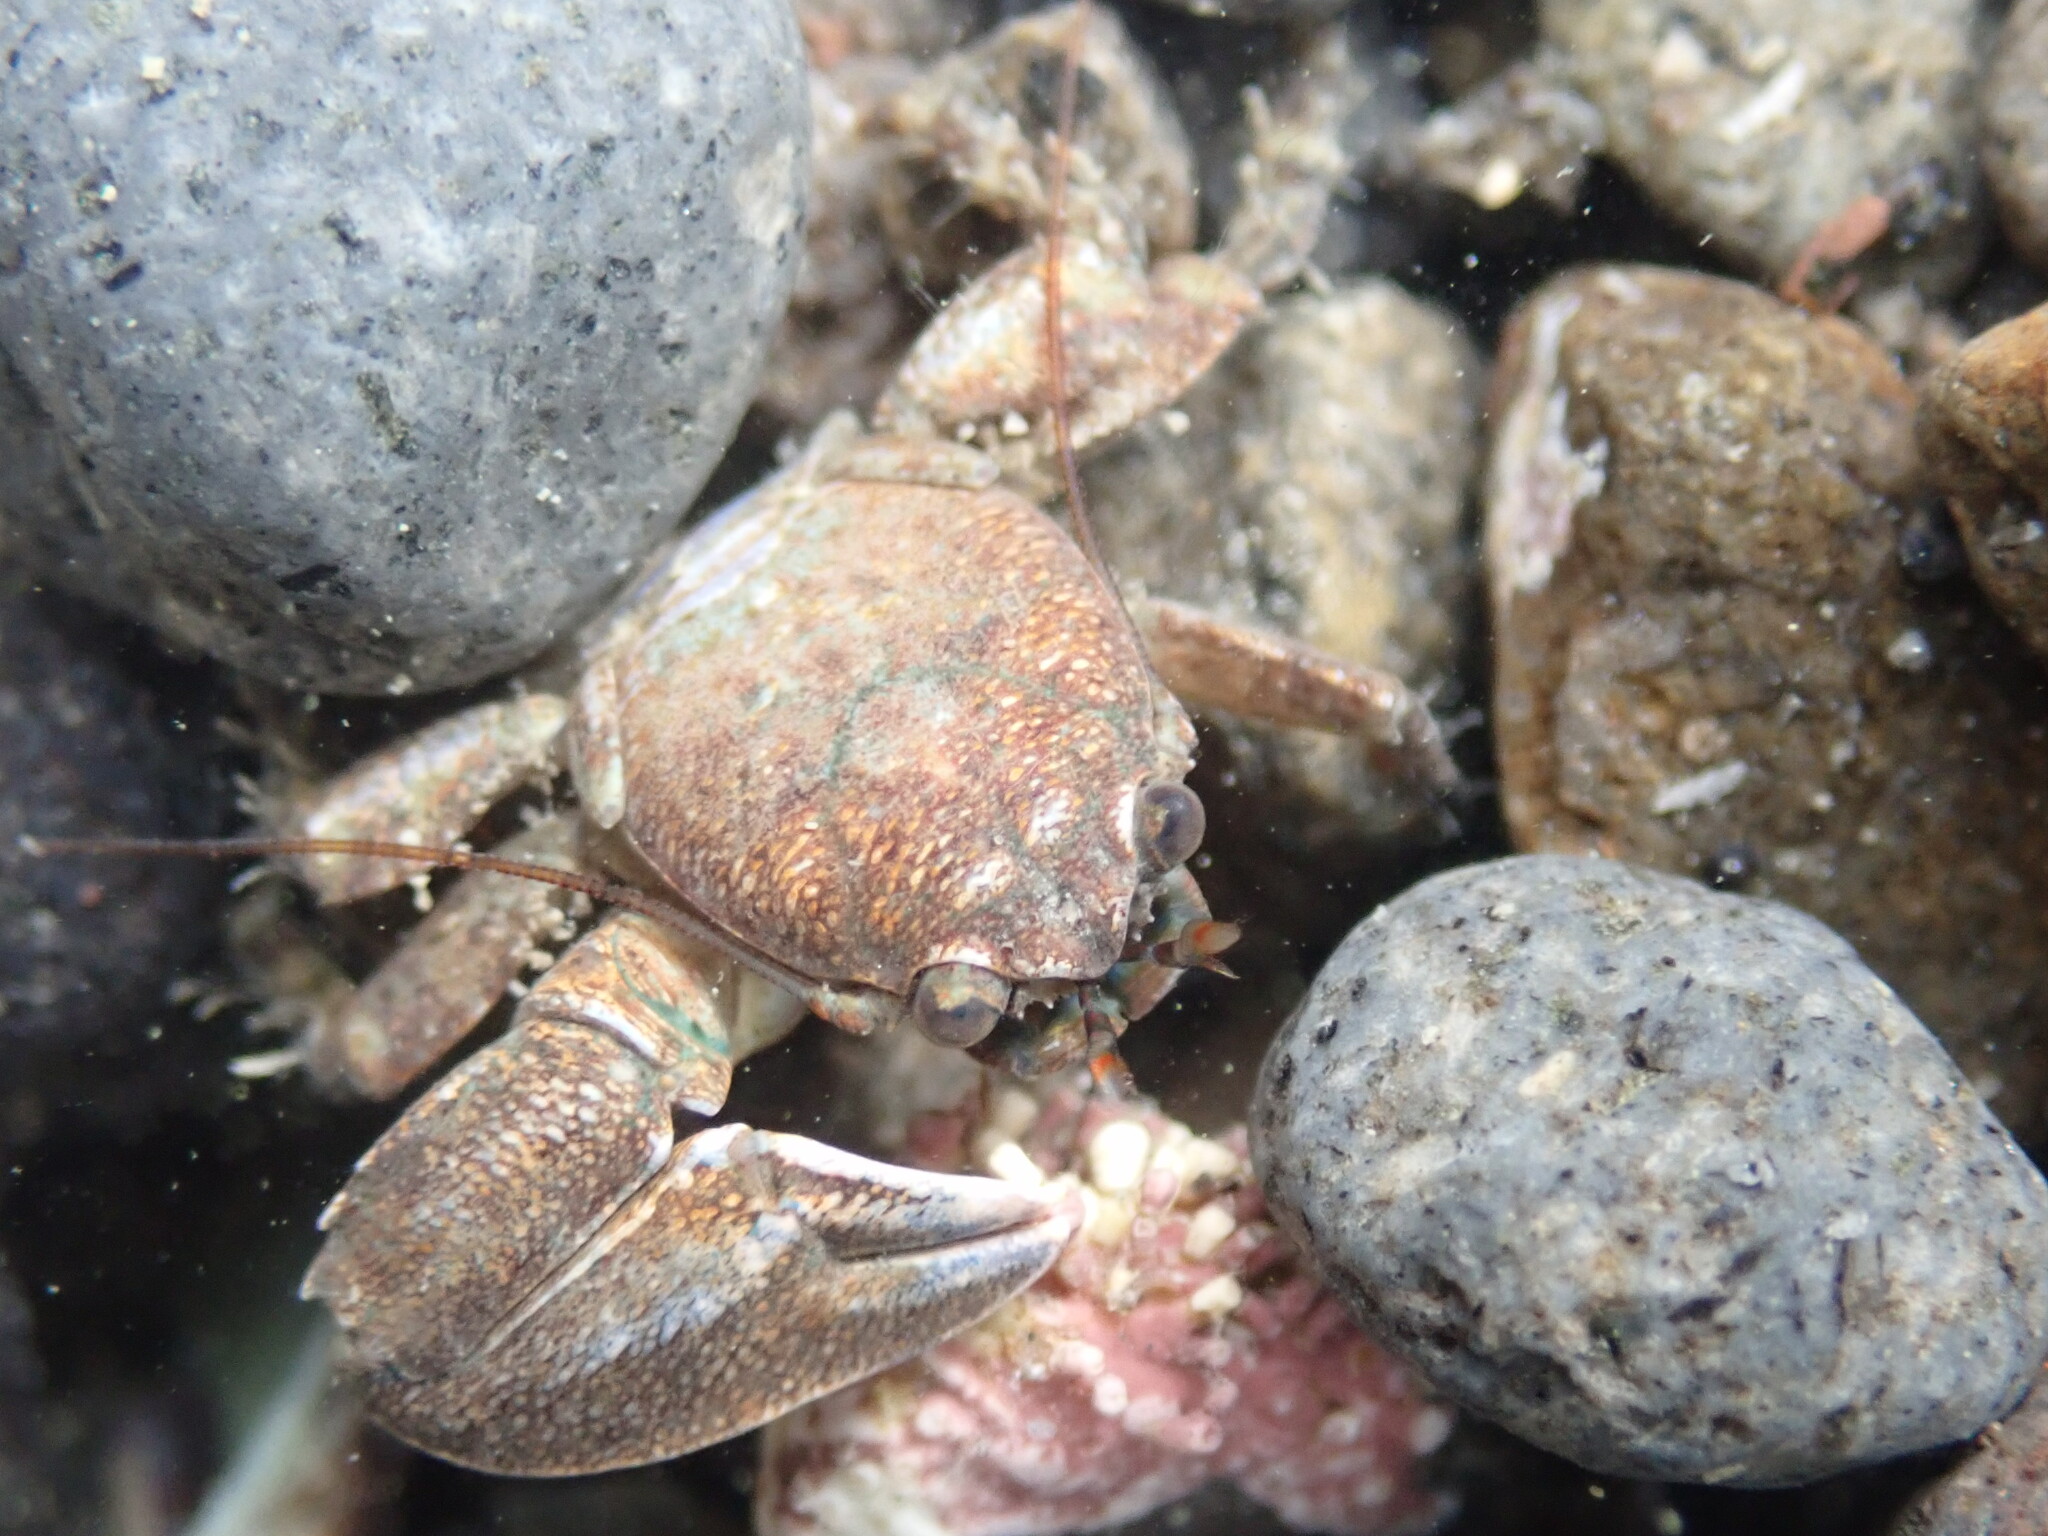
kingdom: Animalia
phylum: Arthropoda
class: Malacostraca
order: Decapoda
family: Porcellanidae
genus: Petrolisthes
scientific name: Petrolisthes elongatus
